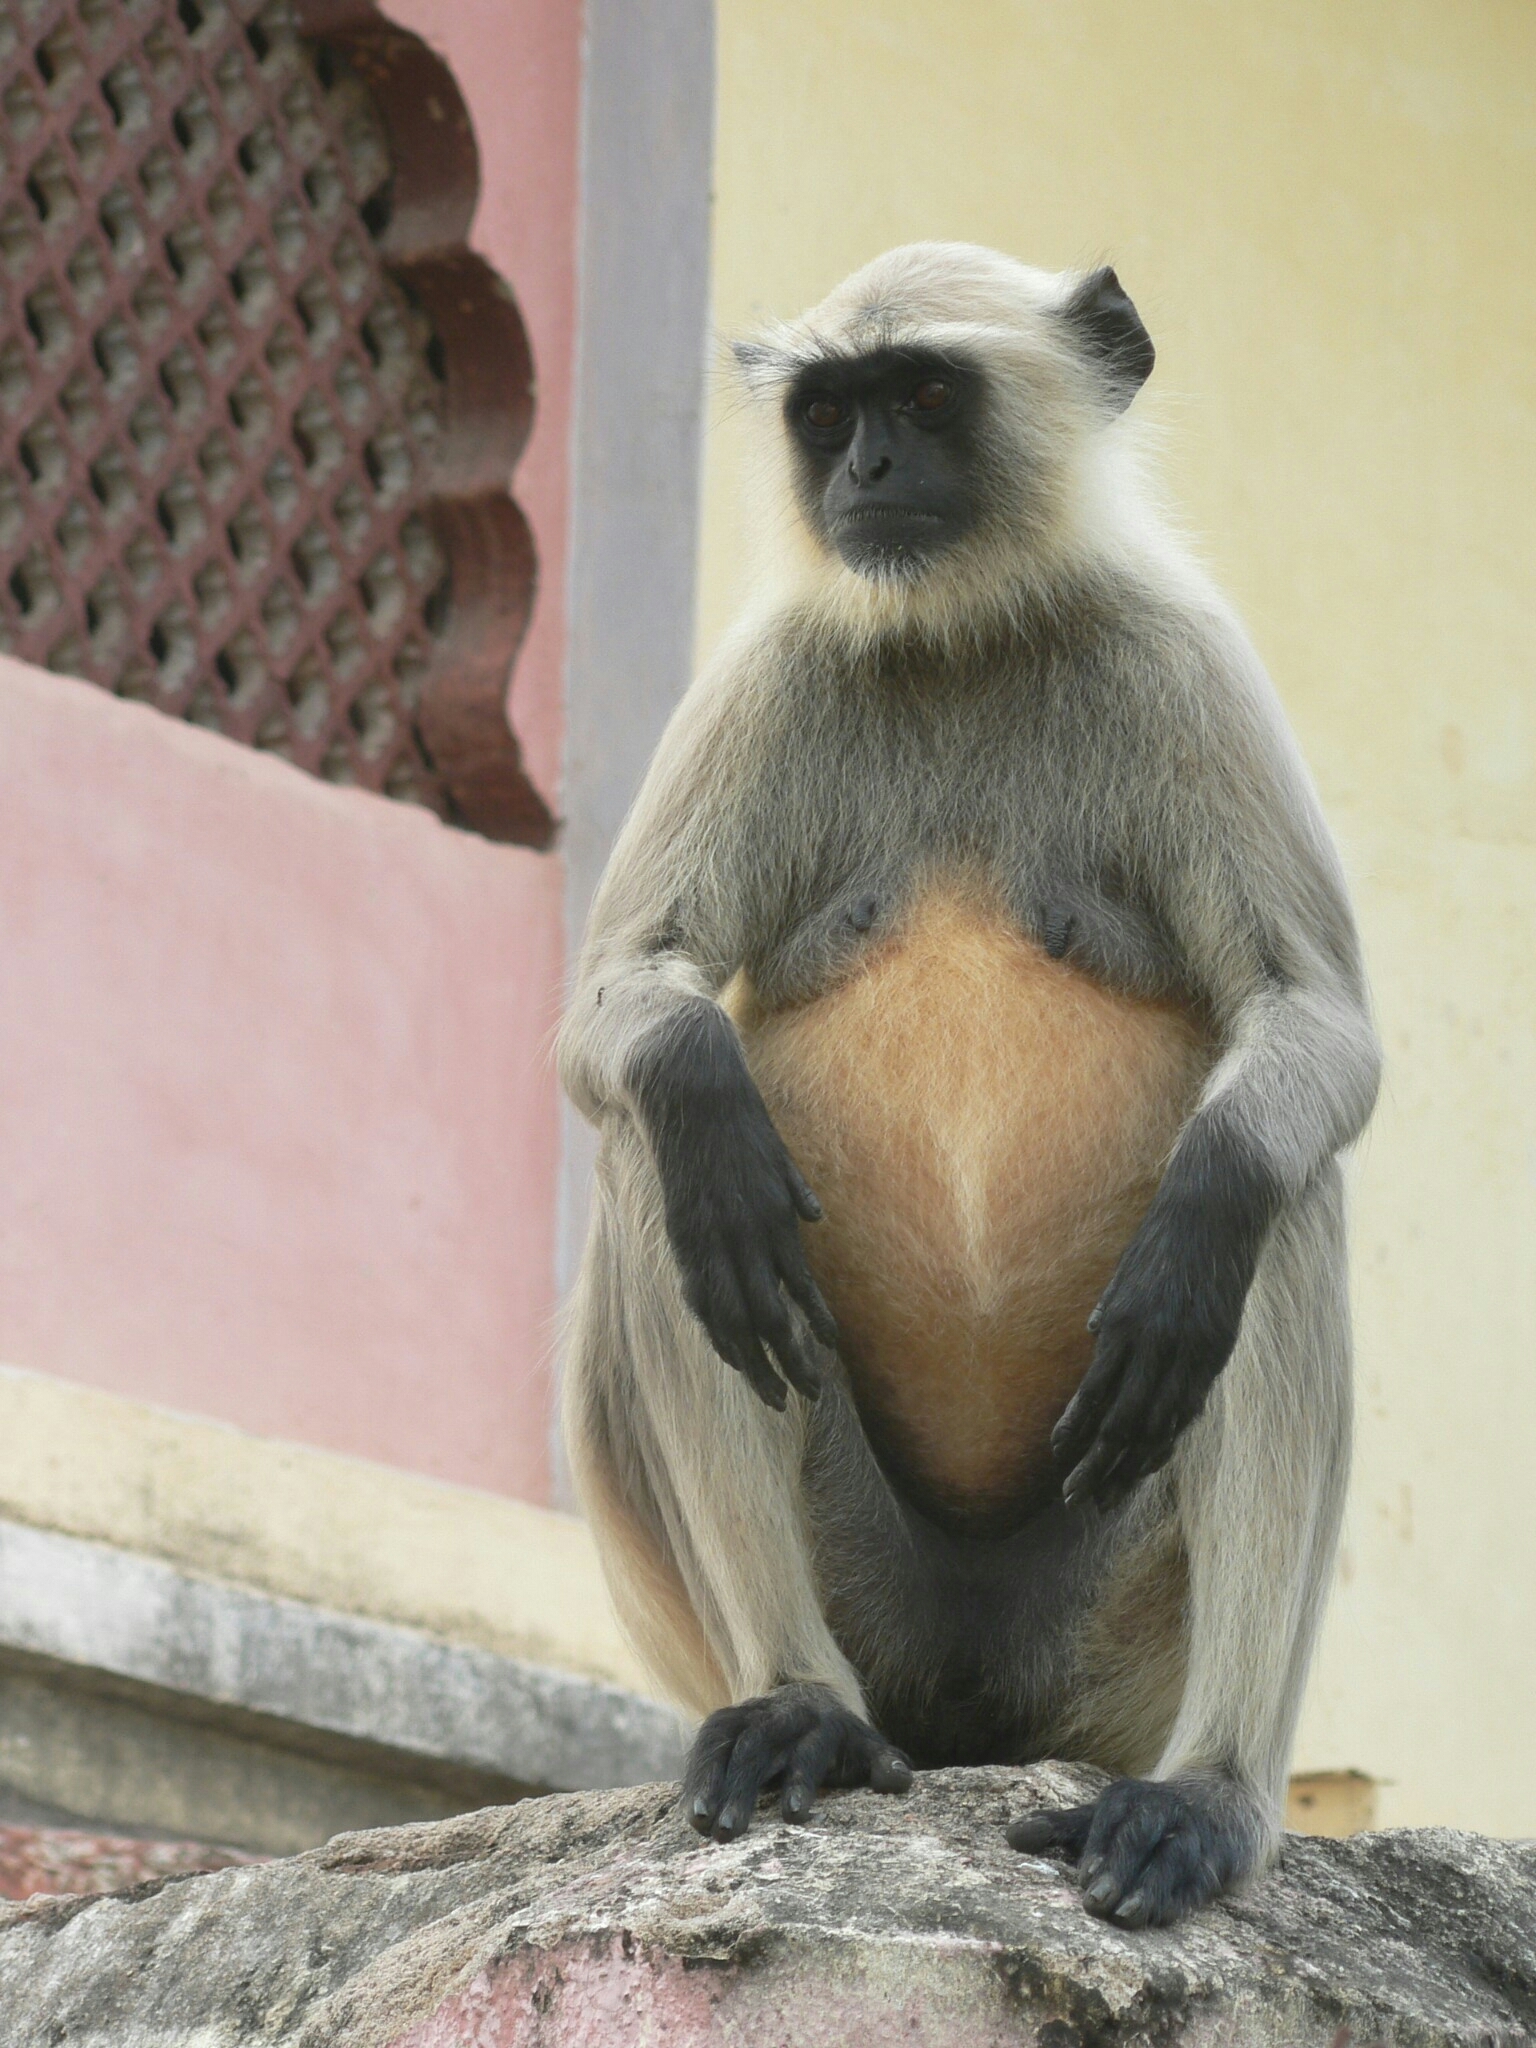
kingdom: Animalia
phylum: Chordata
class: Mammalia
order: Primates
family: Cercopithecidae
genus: Semnopithecus
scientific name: Semnopithecus entellus
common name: Northern plains gray langur
